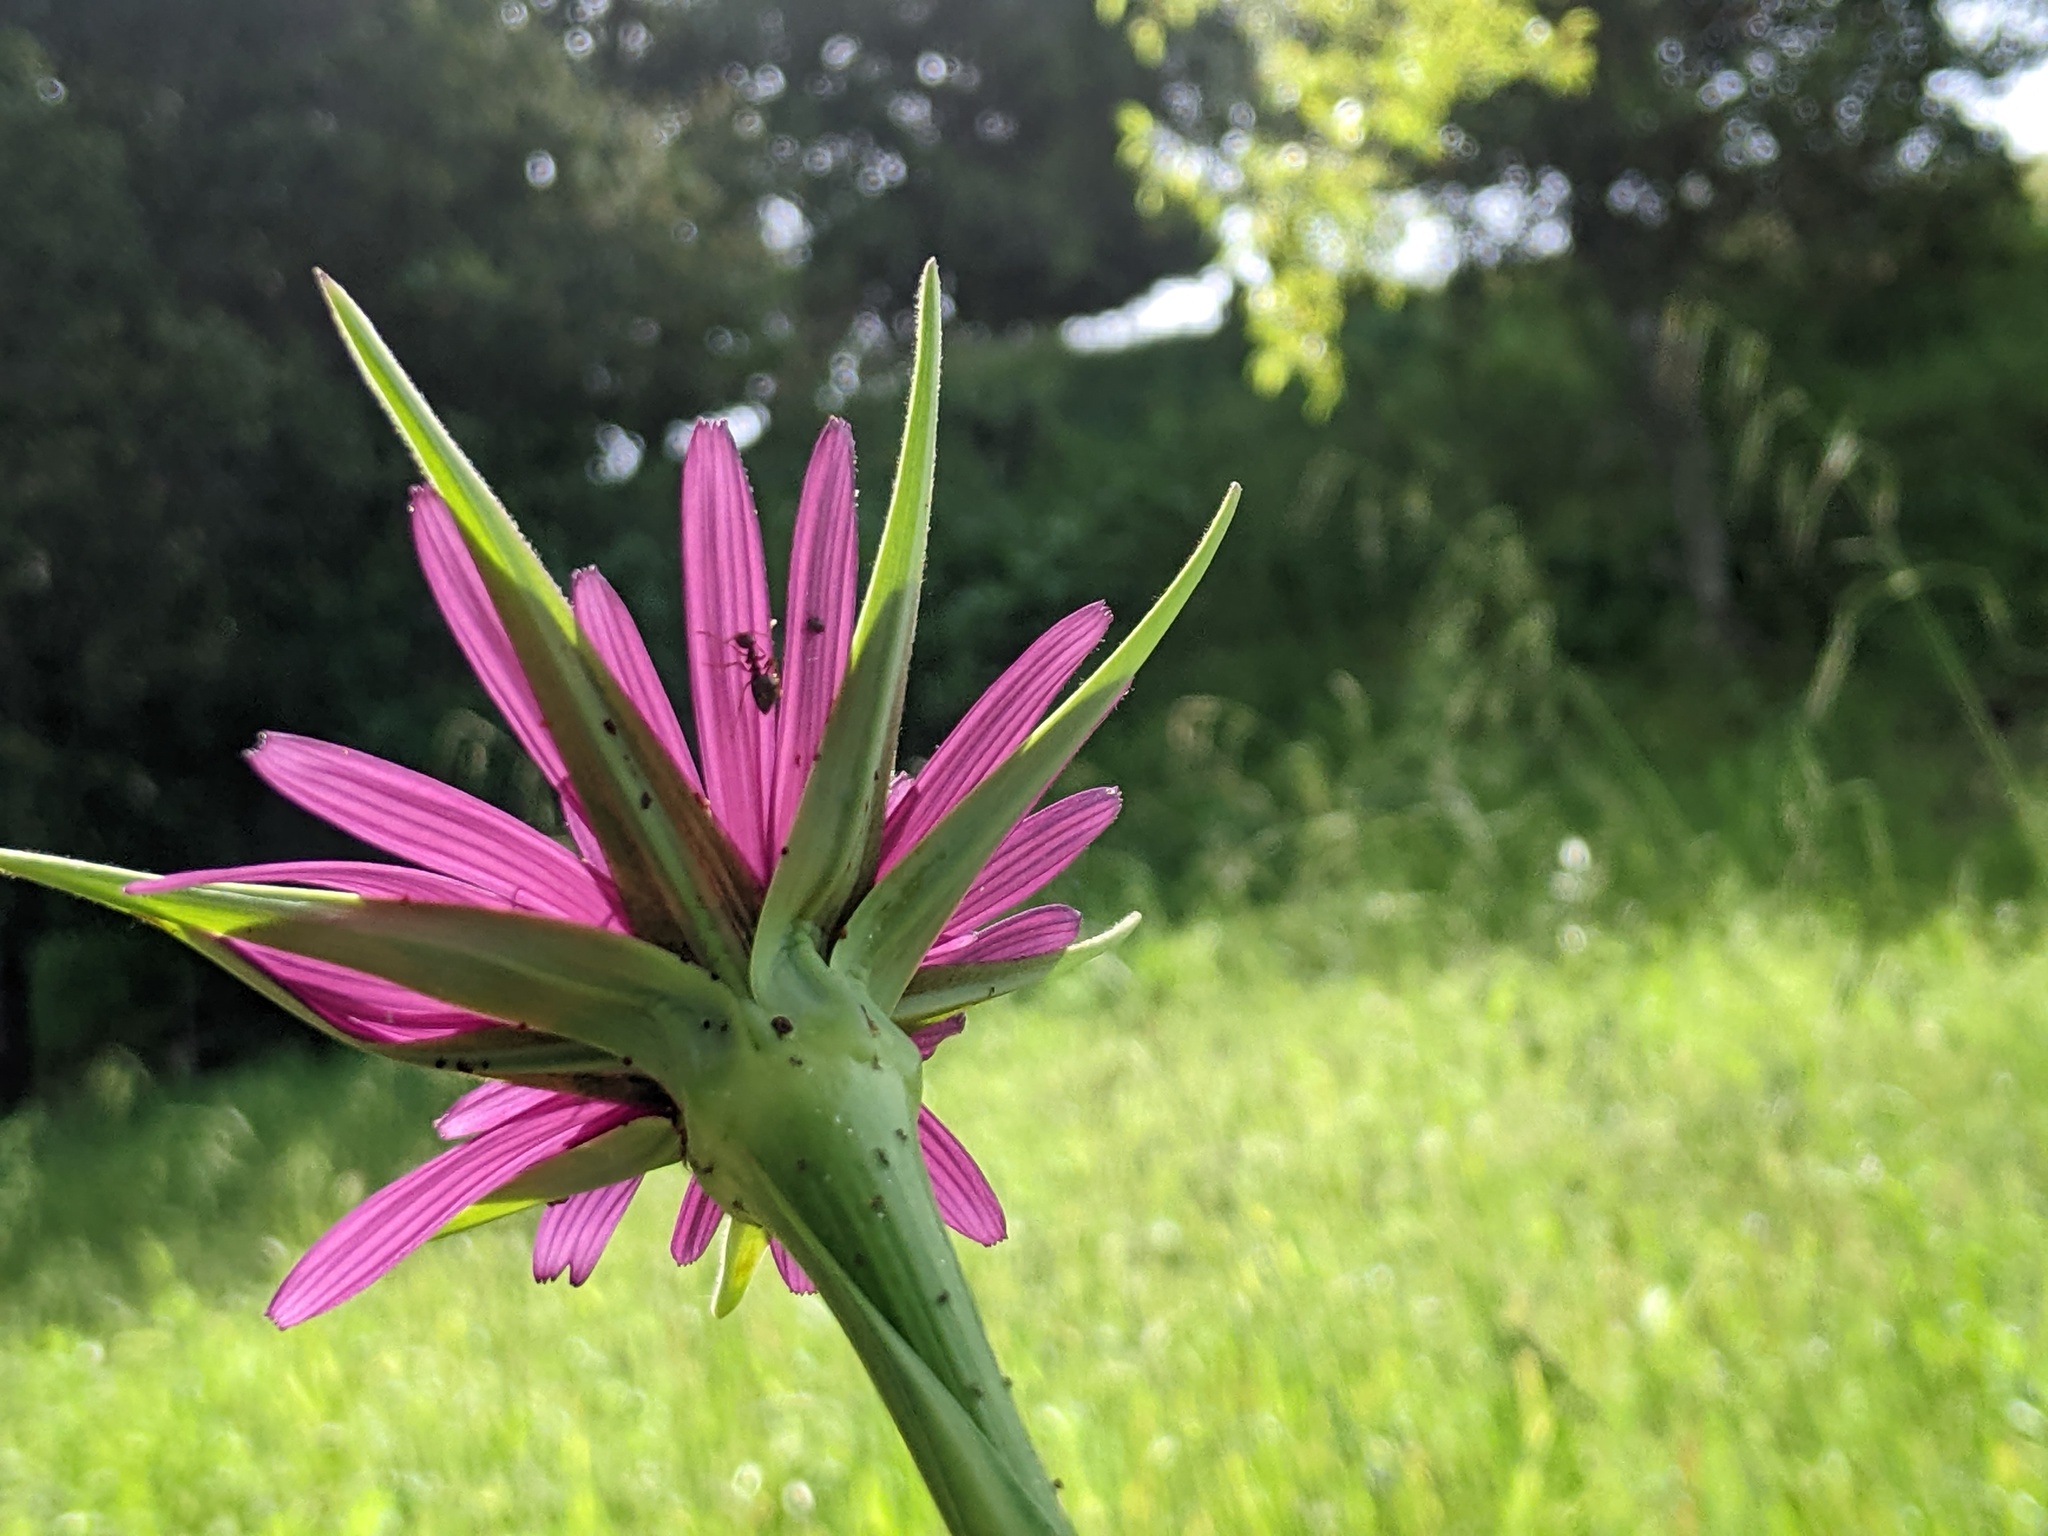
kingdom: Plantae
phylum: Tracheophyta
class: Magnoliopsida
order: Asterales
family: Asteraceae
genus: Tragopogon
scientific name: Tragopogon porrifolius
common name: Salsify
